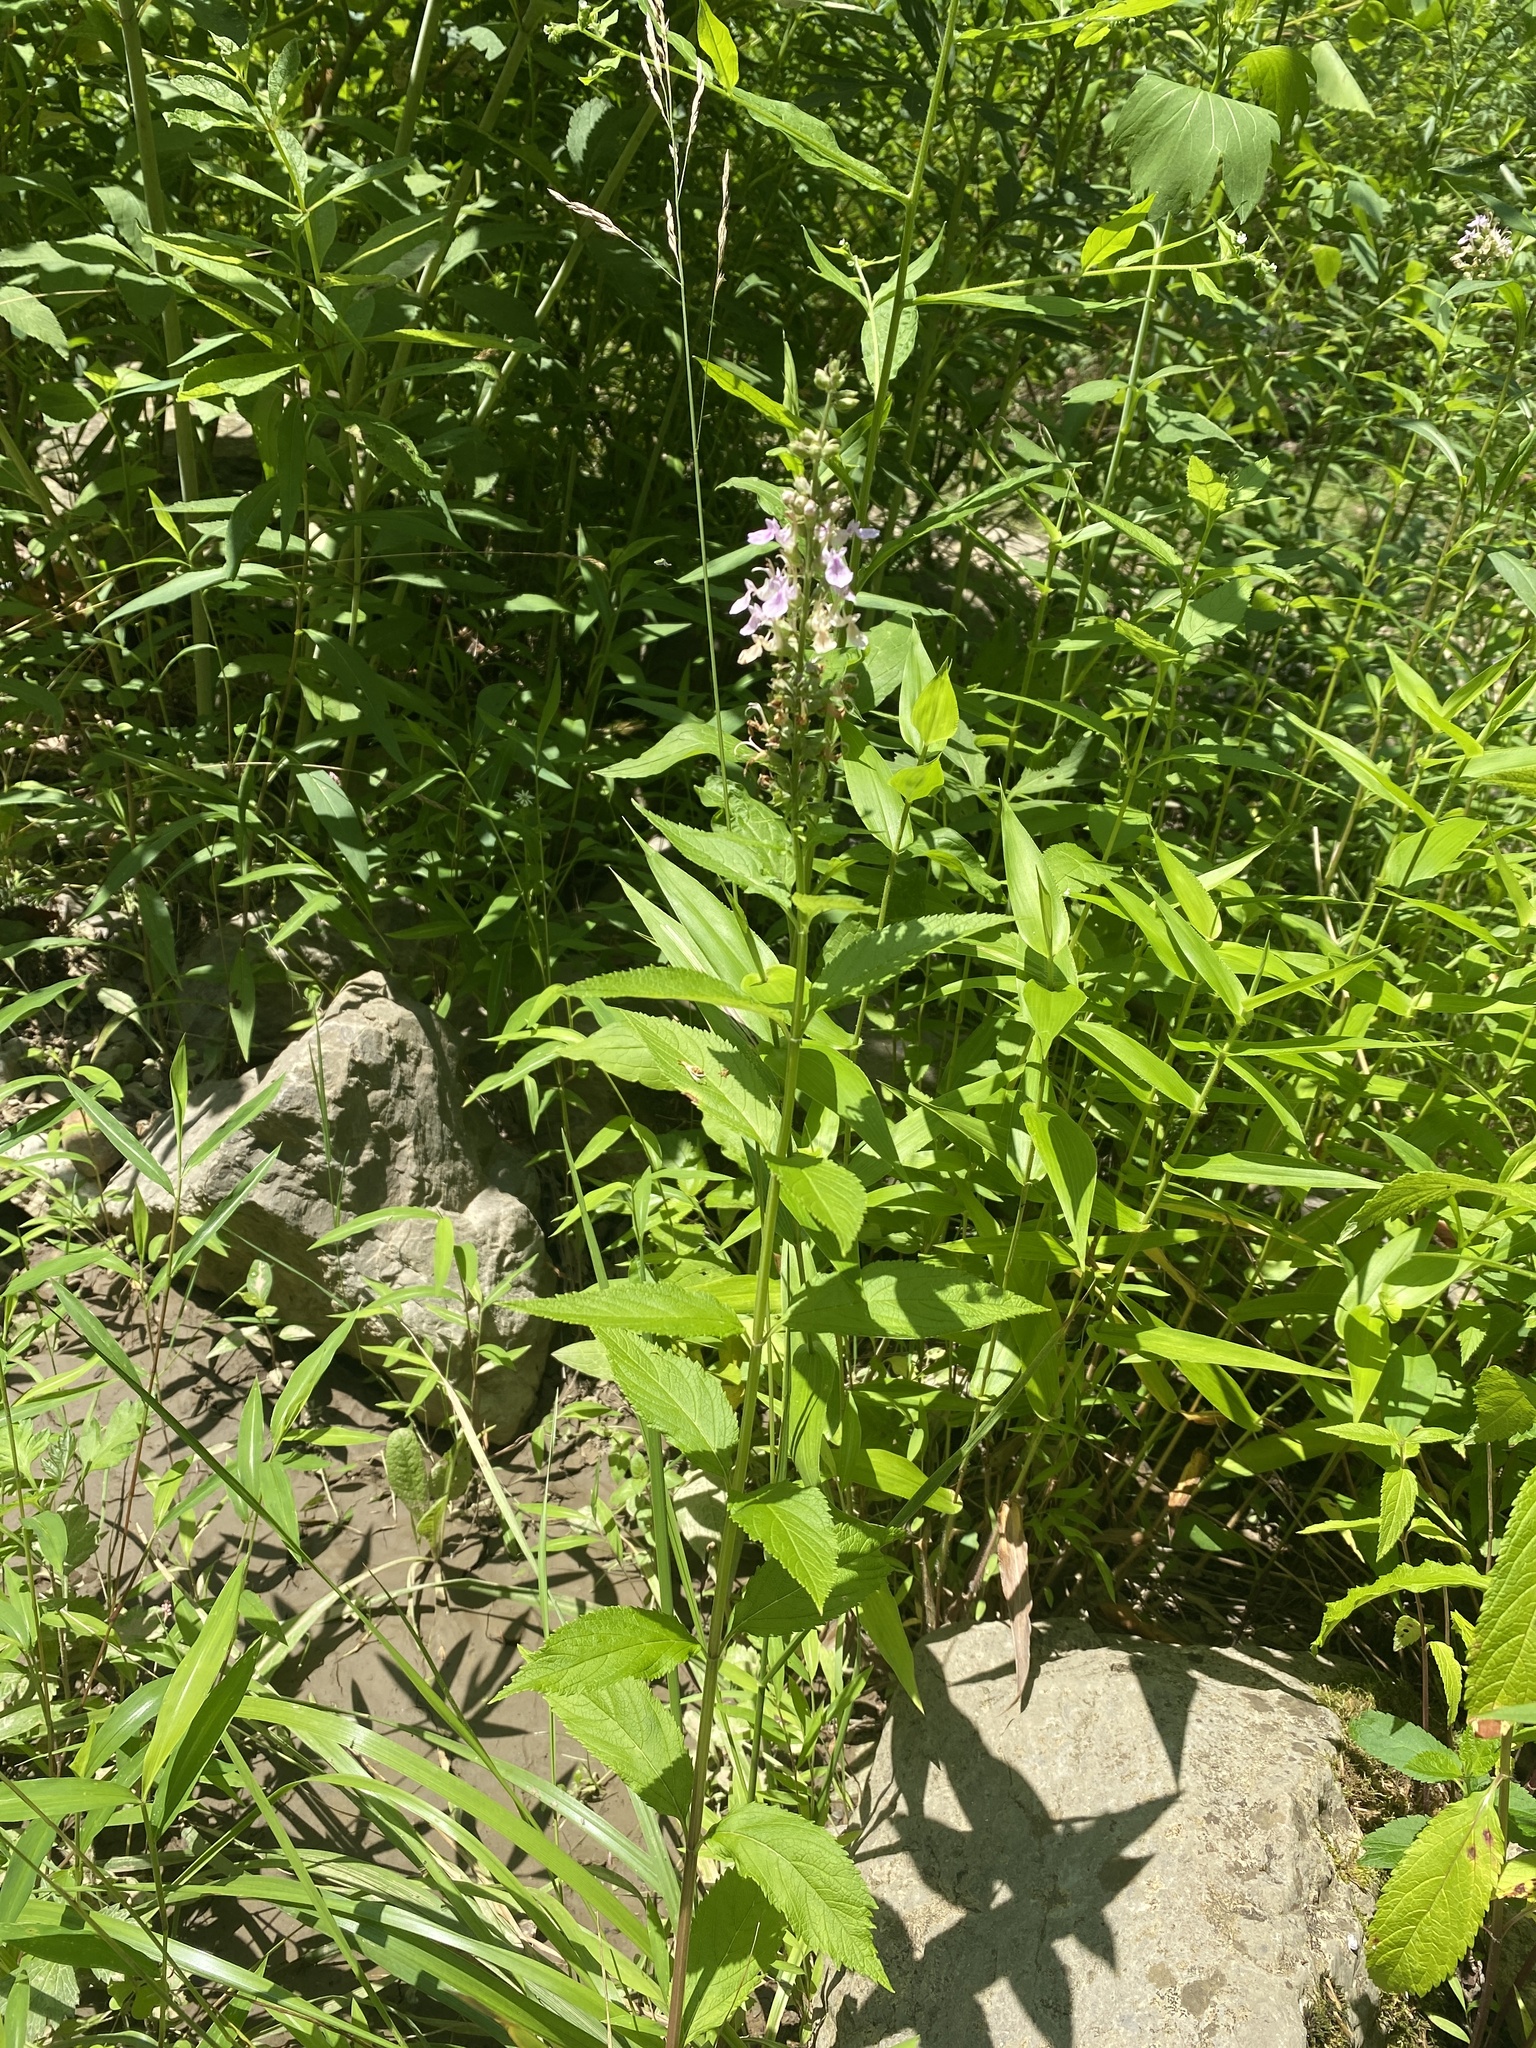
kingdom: Plantae
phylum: Tracheophyta
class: Magnoliopsida
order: Lamiales
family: Lamiaceae
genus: Teucrium
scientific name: Teucrium canadense
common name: American germander
